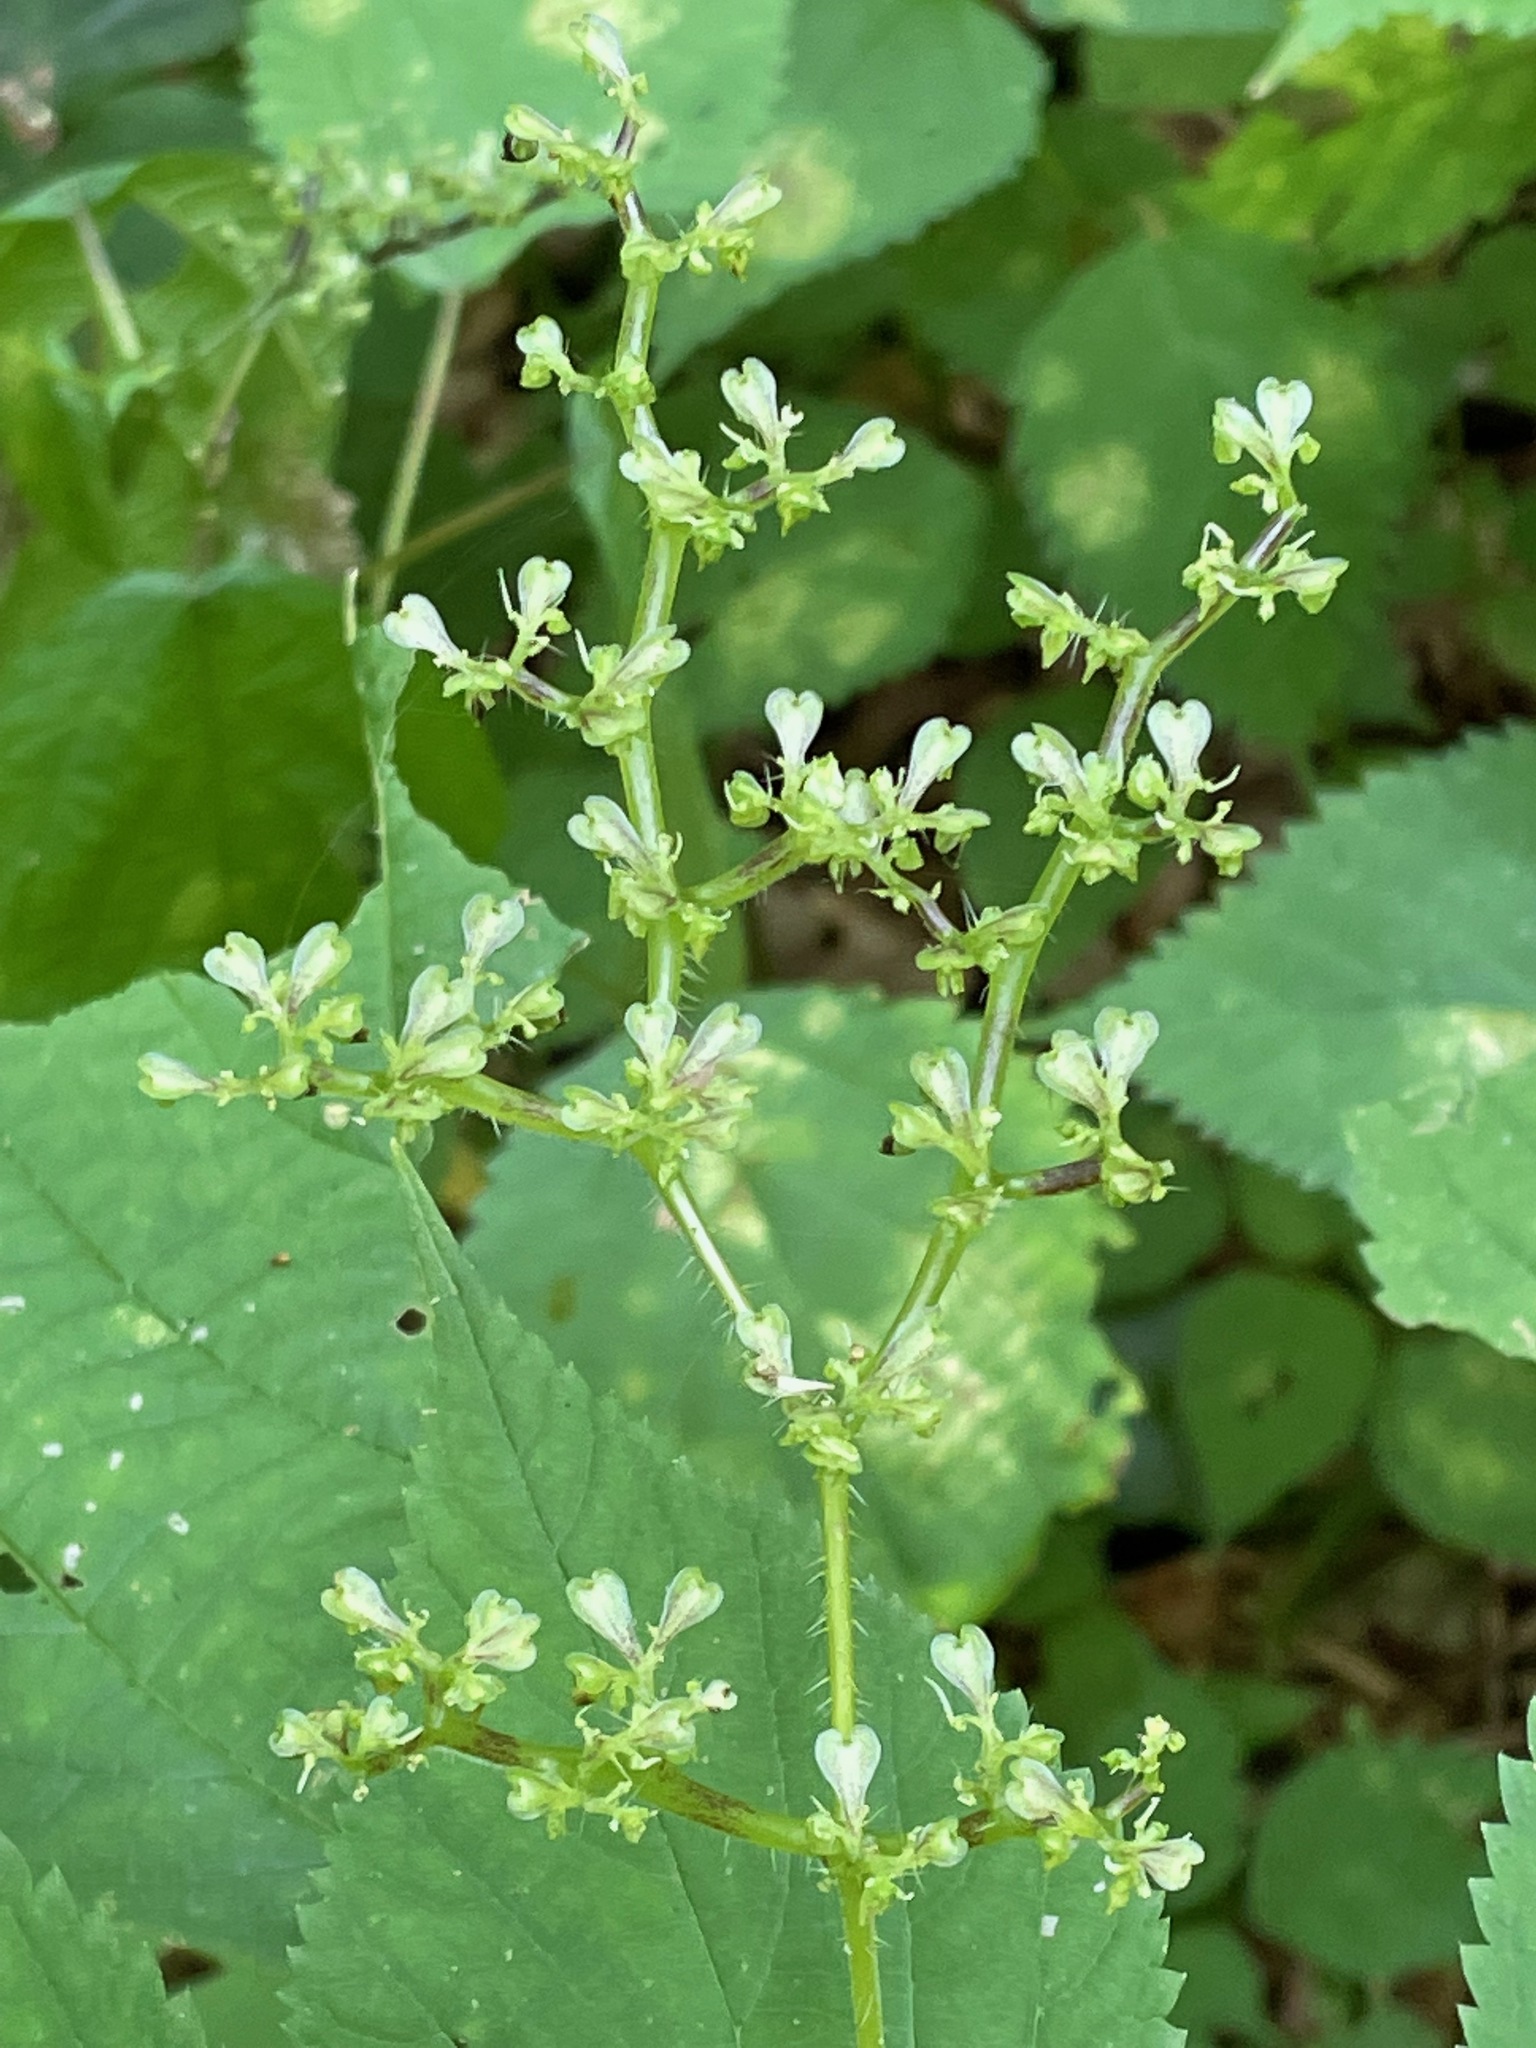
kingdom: Plantae
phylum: Tracheophyta
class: Magnoliopsida
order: Rosales
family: Urticaceae
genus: Laportea
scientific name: Laportea canadensis
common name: Canada nettle
